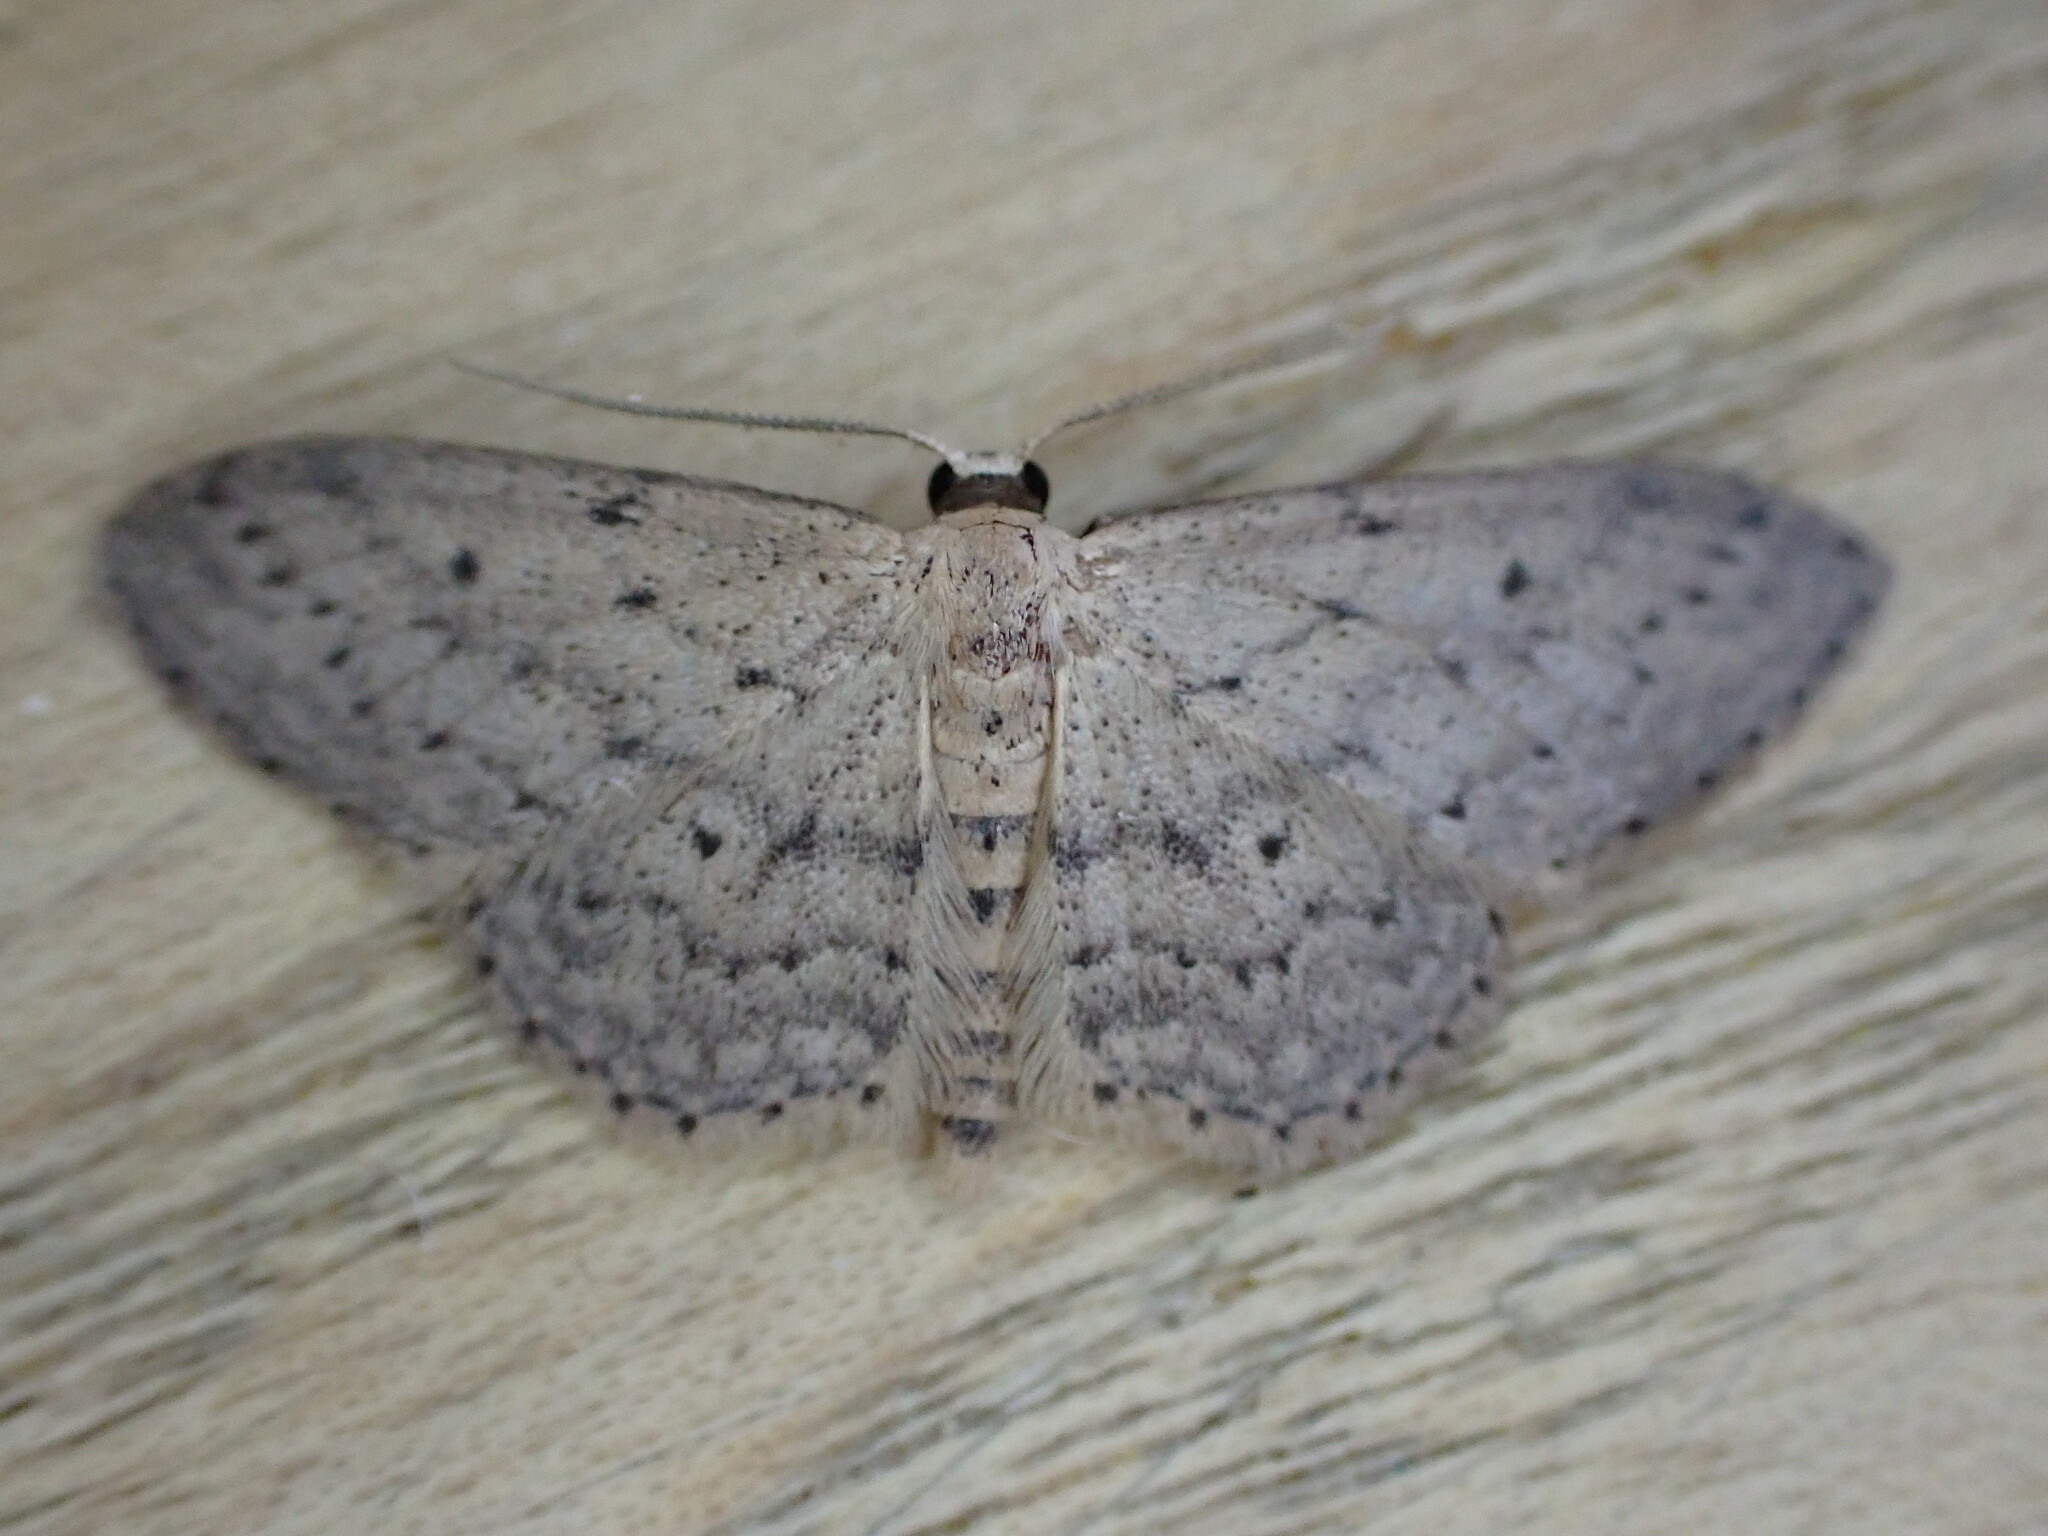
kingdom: Animalia
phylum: Arthropoda
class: Insecta
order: Lepidoptera
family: Geometridae
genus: Idaea
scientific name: Idaea seriata
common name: Small dusty wave
